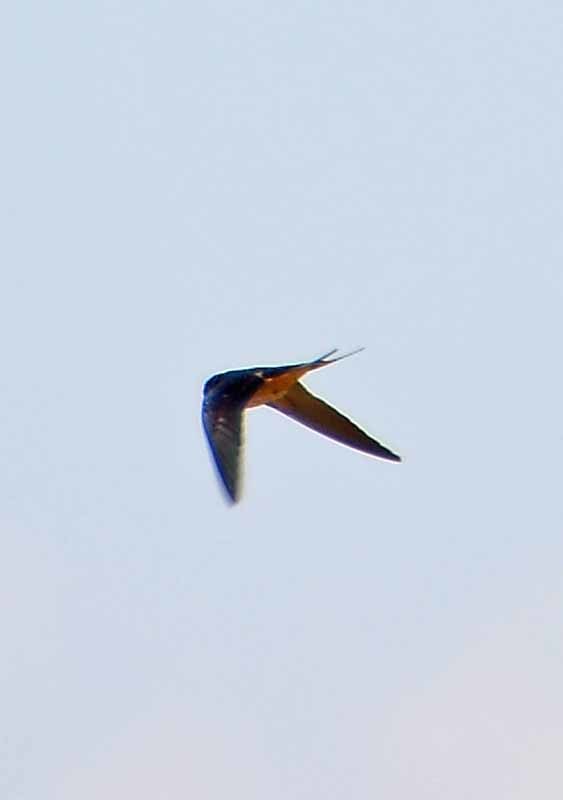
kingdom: Animalia
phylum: Chordata
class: Aves
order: Passeriformes
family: Hirundinidae
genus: Hirundo
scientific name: Hirundo rustica
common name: Barn swallow
